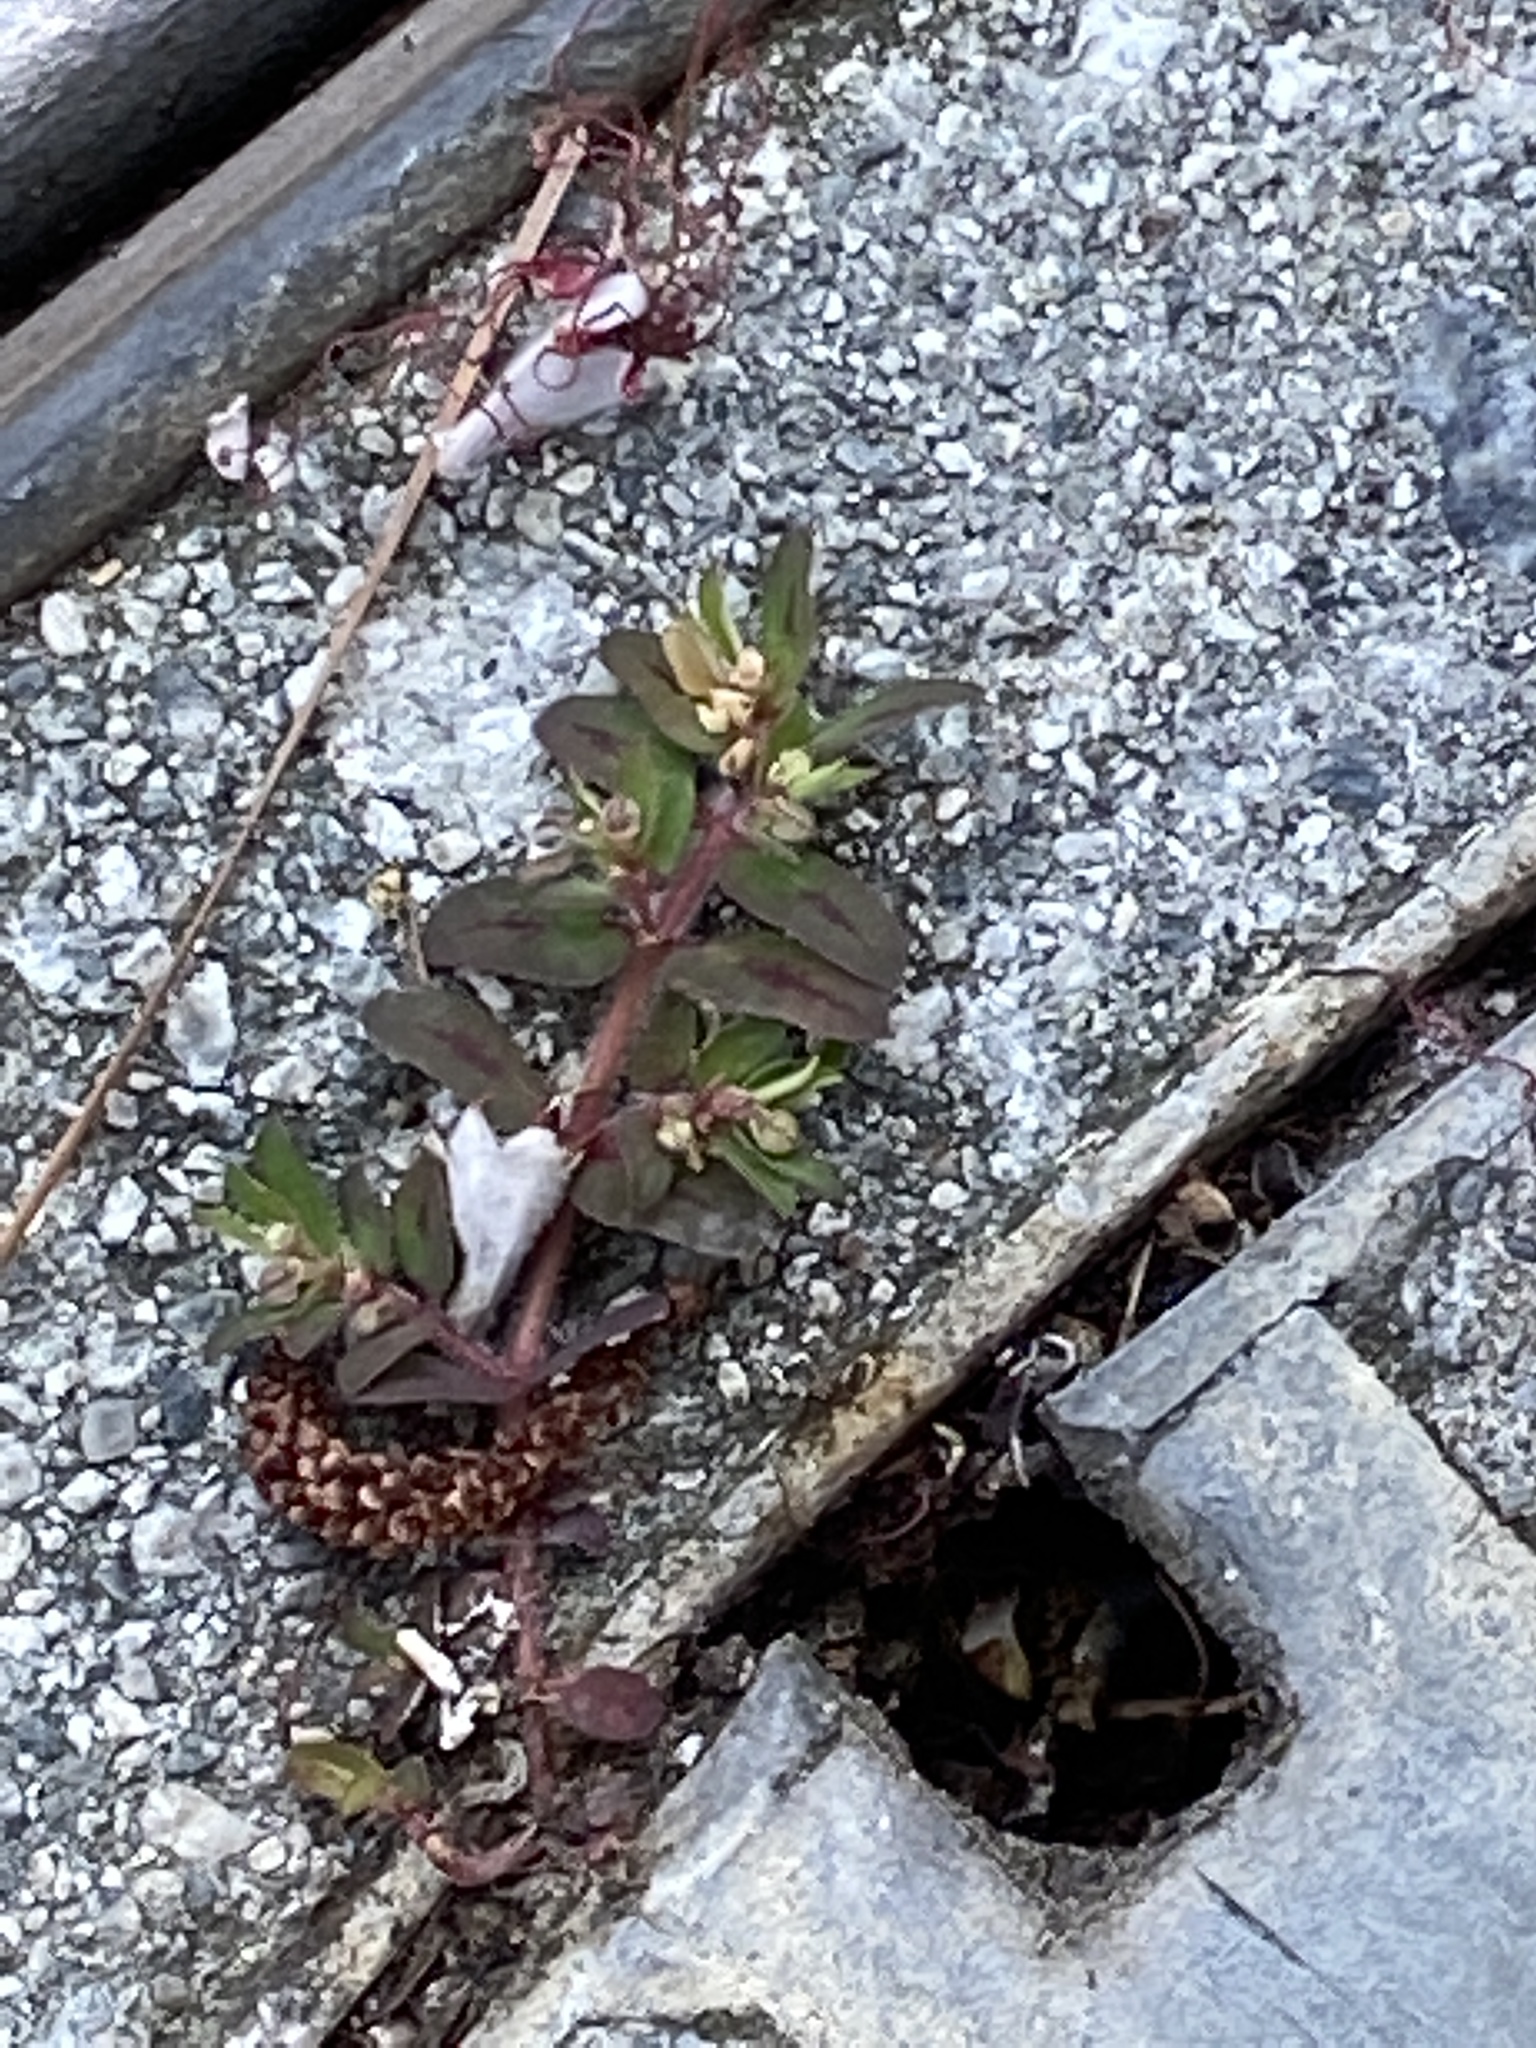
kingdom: Plantae
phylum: Tracheophyta
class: Magnoliopsida
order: Malpighiales
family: Euphorbiaceae
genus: Euphorbia
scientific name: Euphorbia maculata
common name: Spotted spurge
